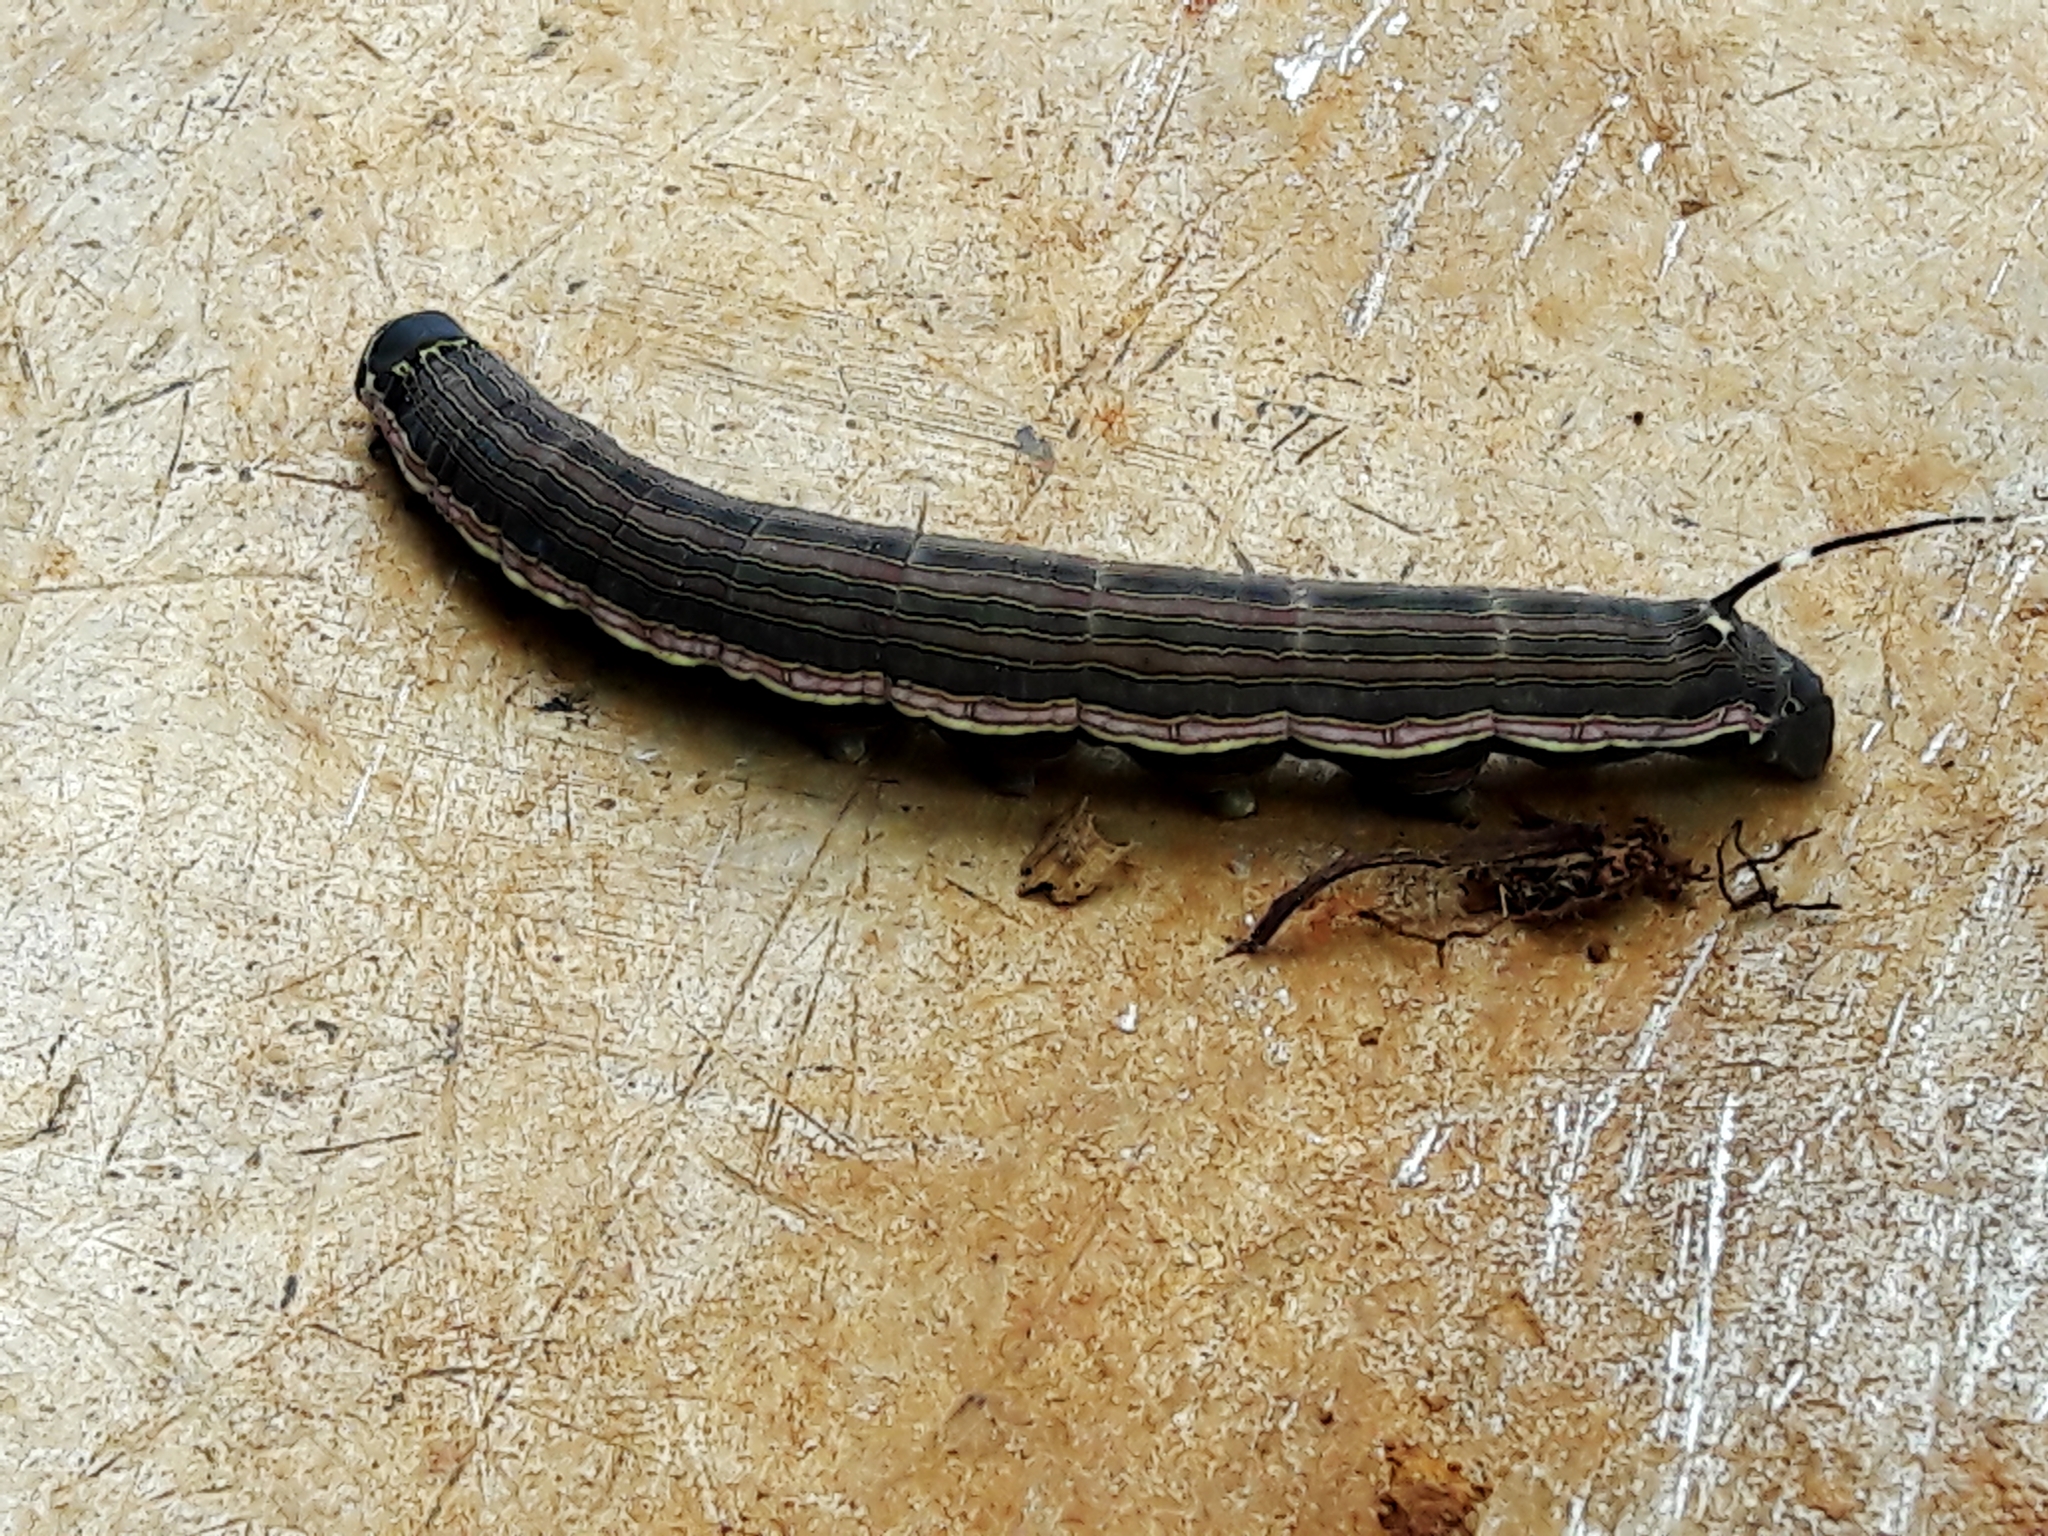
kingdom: Animalia
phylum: Arthropoda
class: Insecta
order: Lepidoptera
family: Sphingidae
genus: Isognathus
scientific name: Isognathus allamandae
